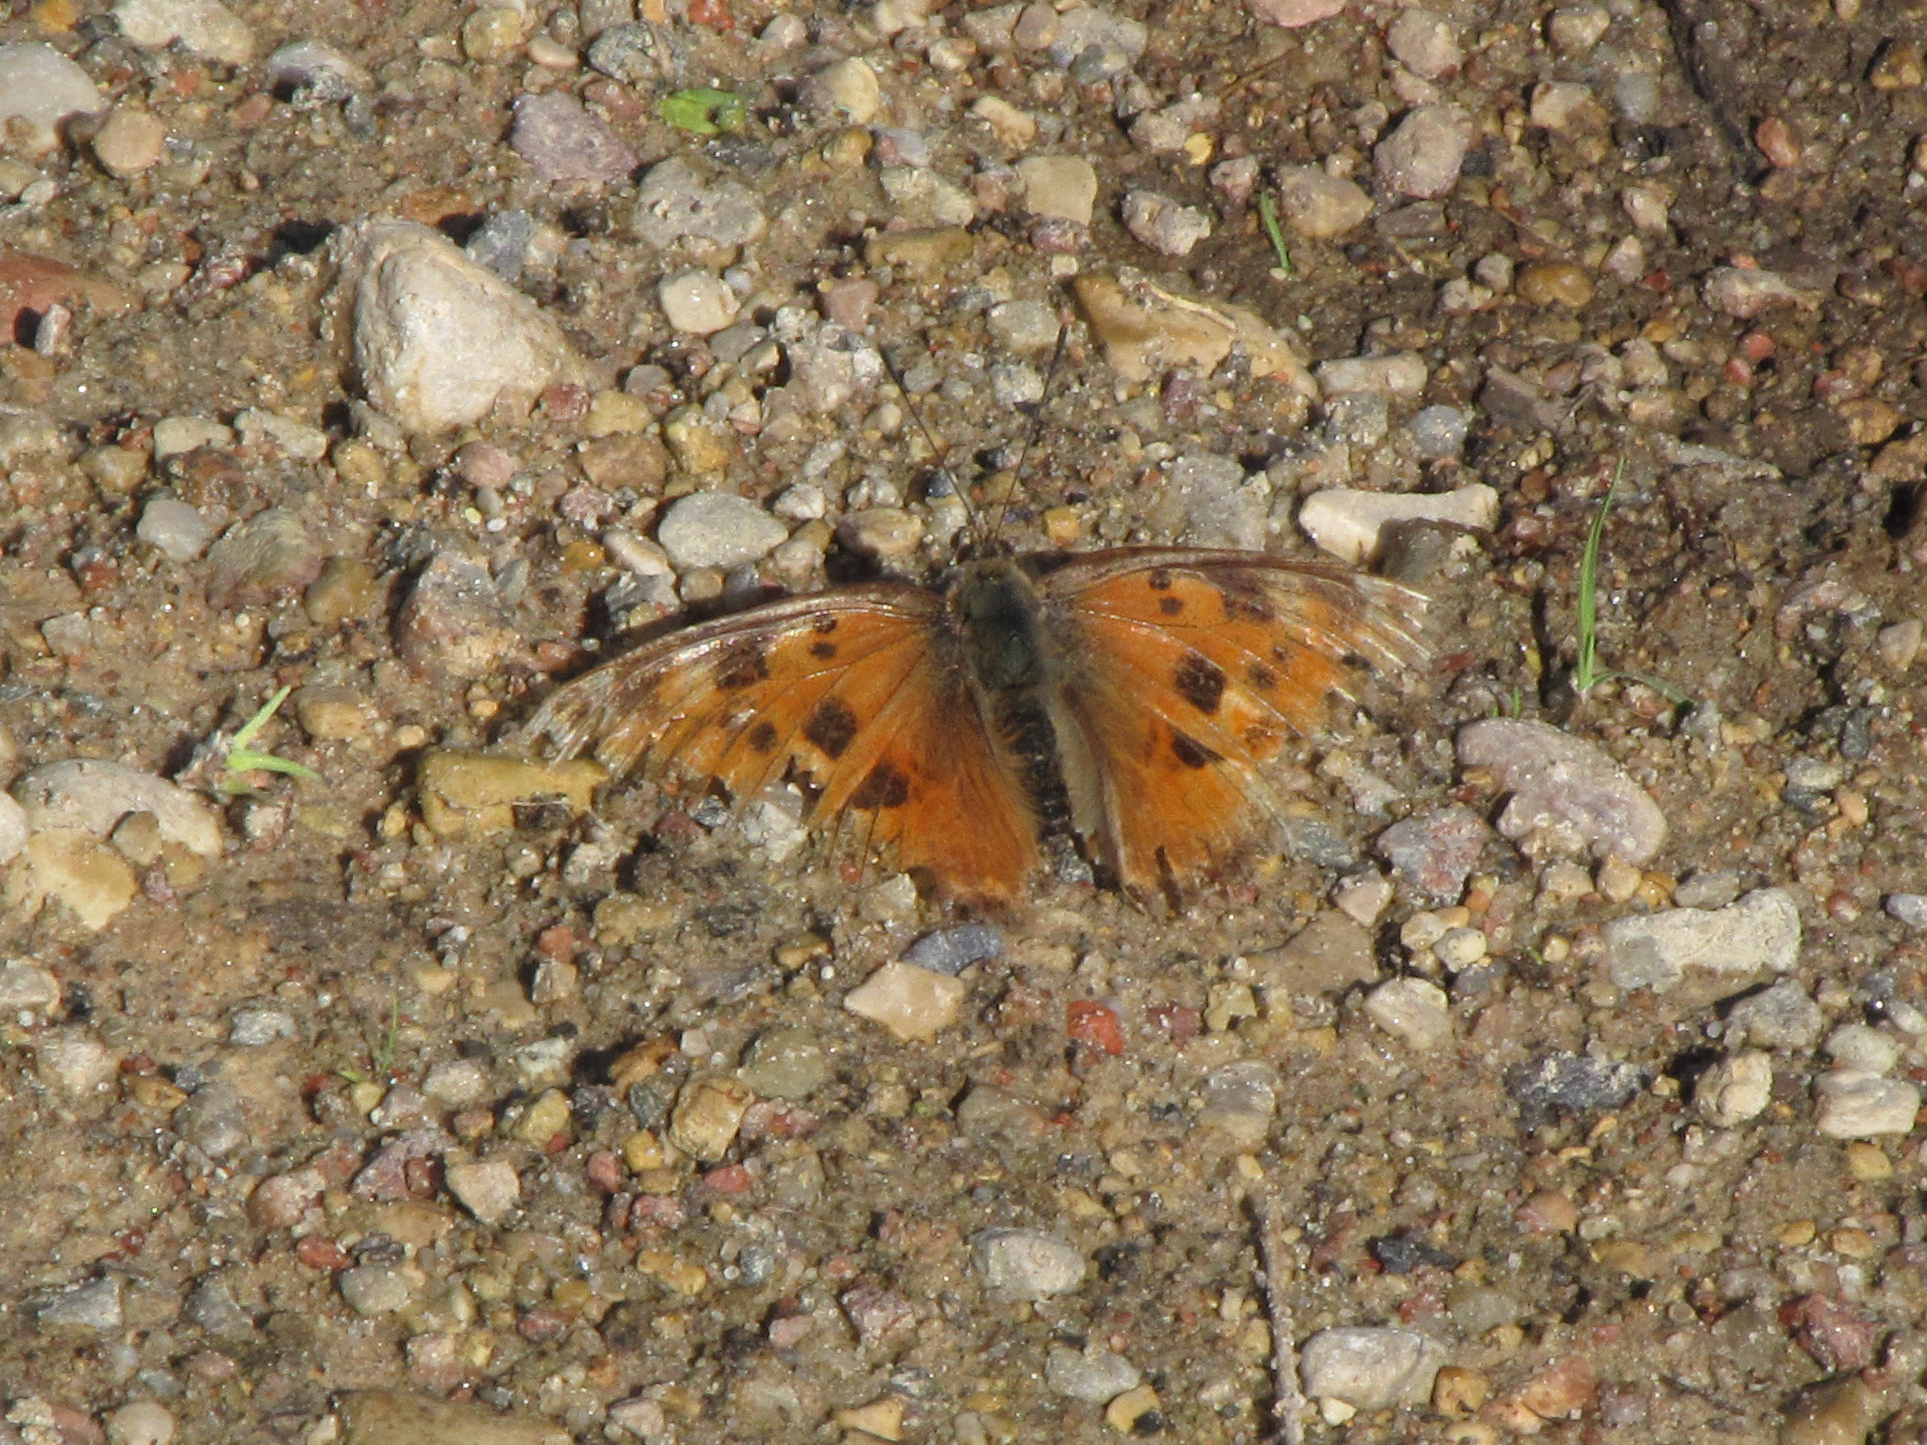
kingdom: Animalia
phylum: Arthropoda
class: Insecta
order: Lepidoptera
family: Nymphalidae
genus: Nymphalis
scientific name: Nymphalis xanthomelas
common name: Scarce tortoiseshell
